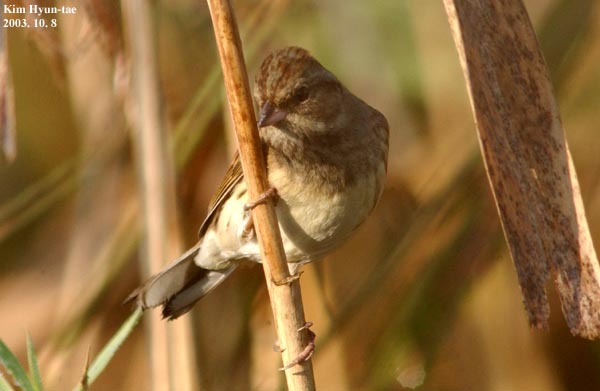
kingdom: Animalia
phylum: Chordata
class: Aves
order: Passeriformes
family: Emberizidae
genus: Emberiza
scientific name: Emberiza spodocephala
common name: Black-faced bunting
